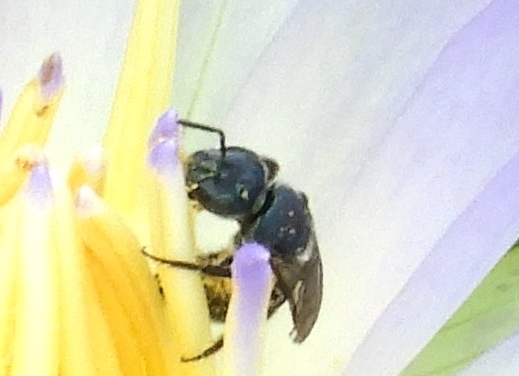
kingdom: Animalia
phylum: Arthropoda
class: Insecta
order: Hymenoptera
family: Halictidae
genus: Augochlora
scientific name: Augochlora nigrocyanea
